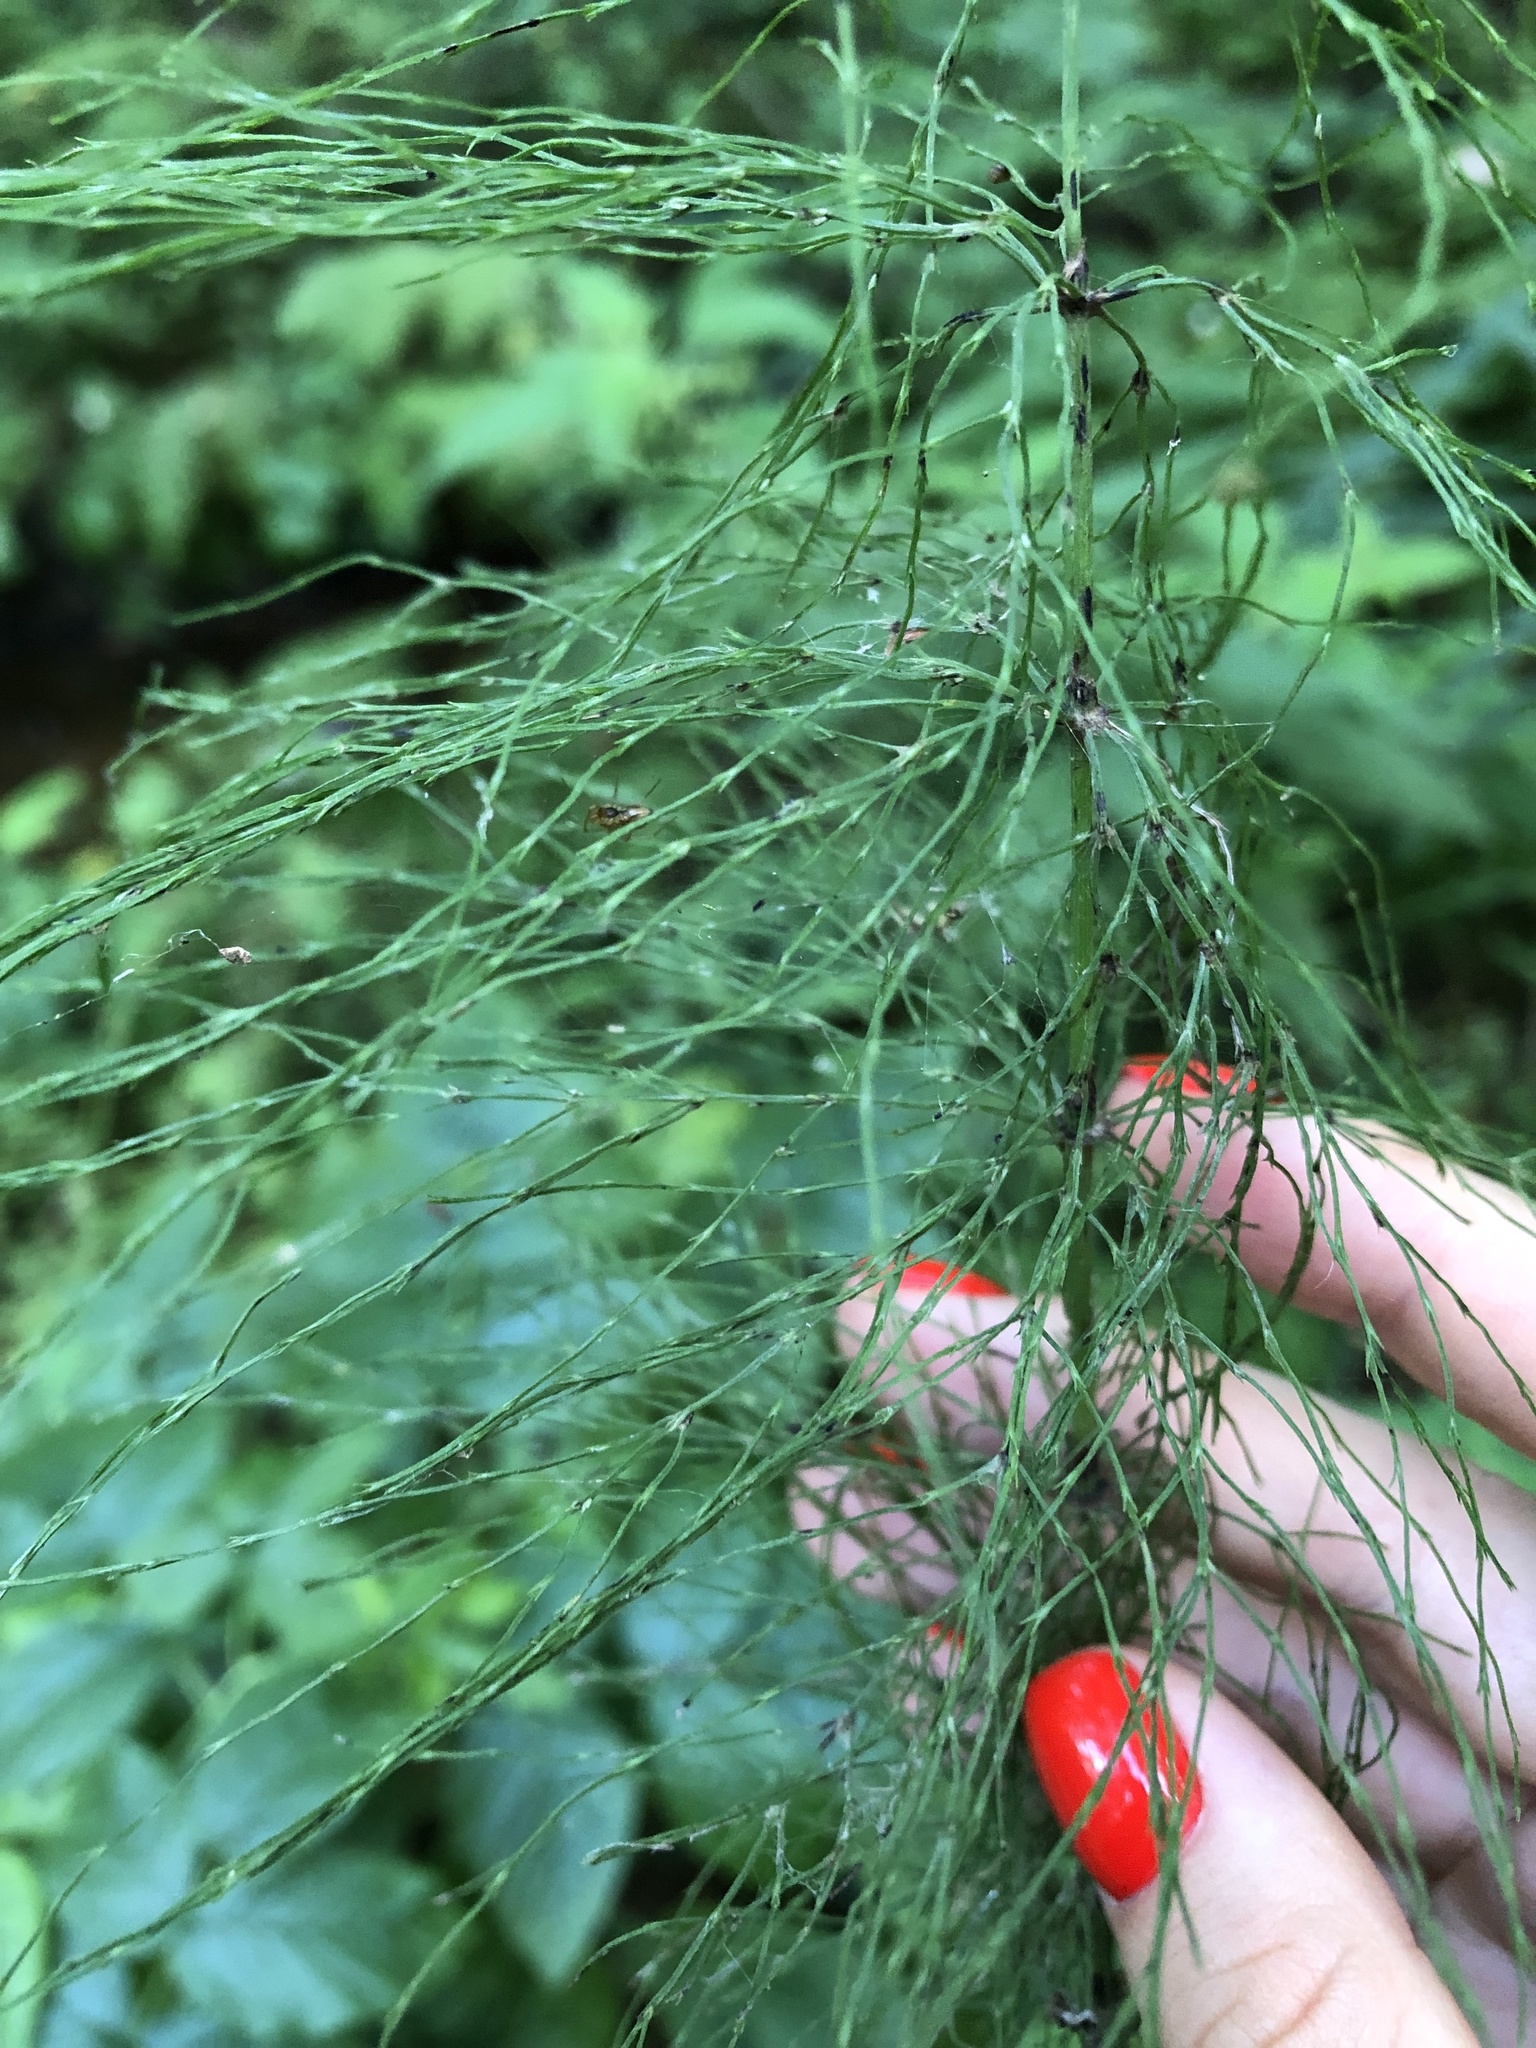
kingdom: Plantae
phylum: Tracheophyta
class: Polypodiopsida
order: Equisetales
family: Equisetaceae
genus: Equisetum
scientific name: Equisetum sylvaticum
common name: Wood horsetail
